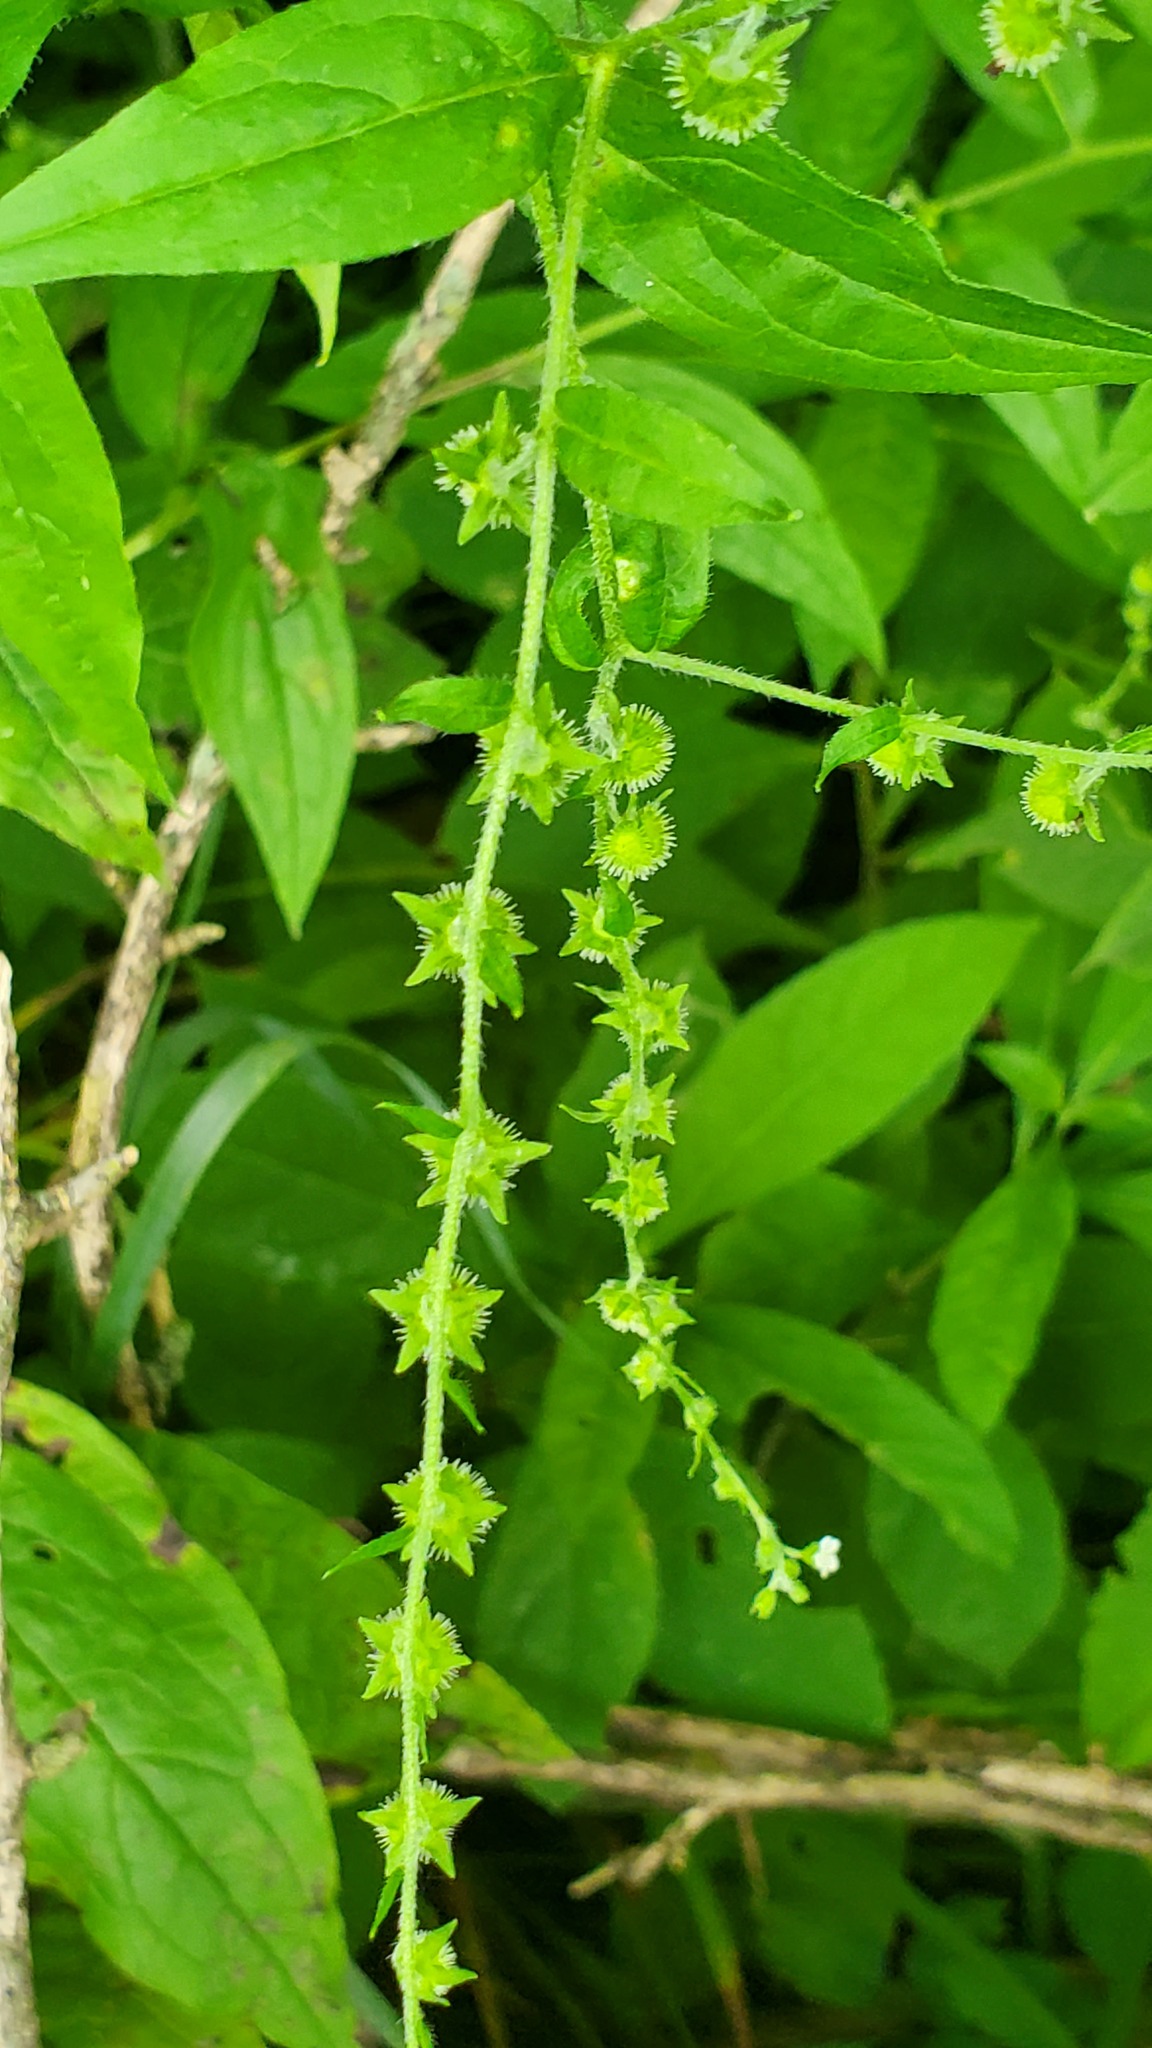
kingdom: Plantae
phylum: Tracheophyta
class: Magnoliopsida
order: Boraginales
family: Boraginaceae
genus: Hackelia
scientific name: Hackelia virginiana
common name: Beggar's-lice
